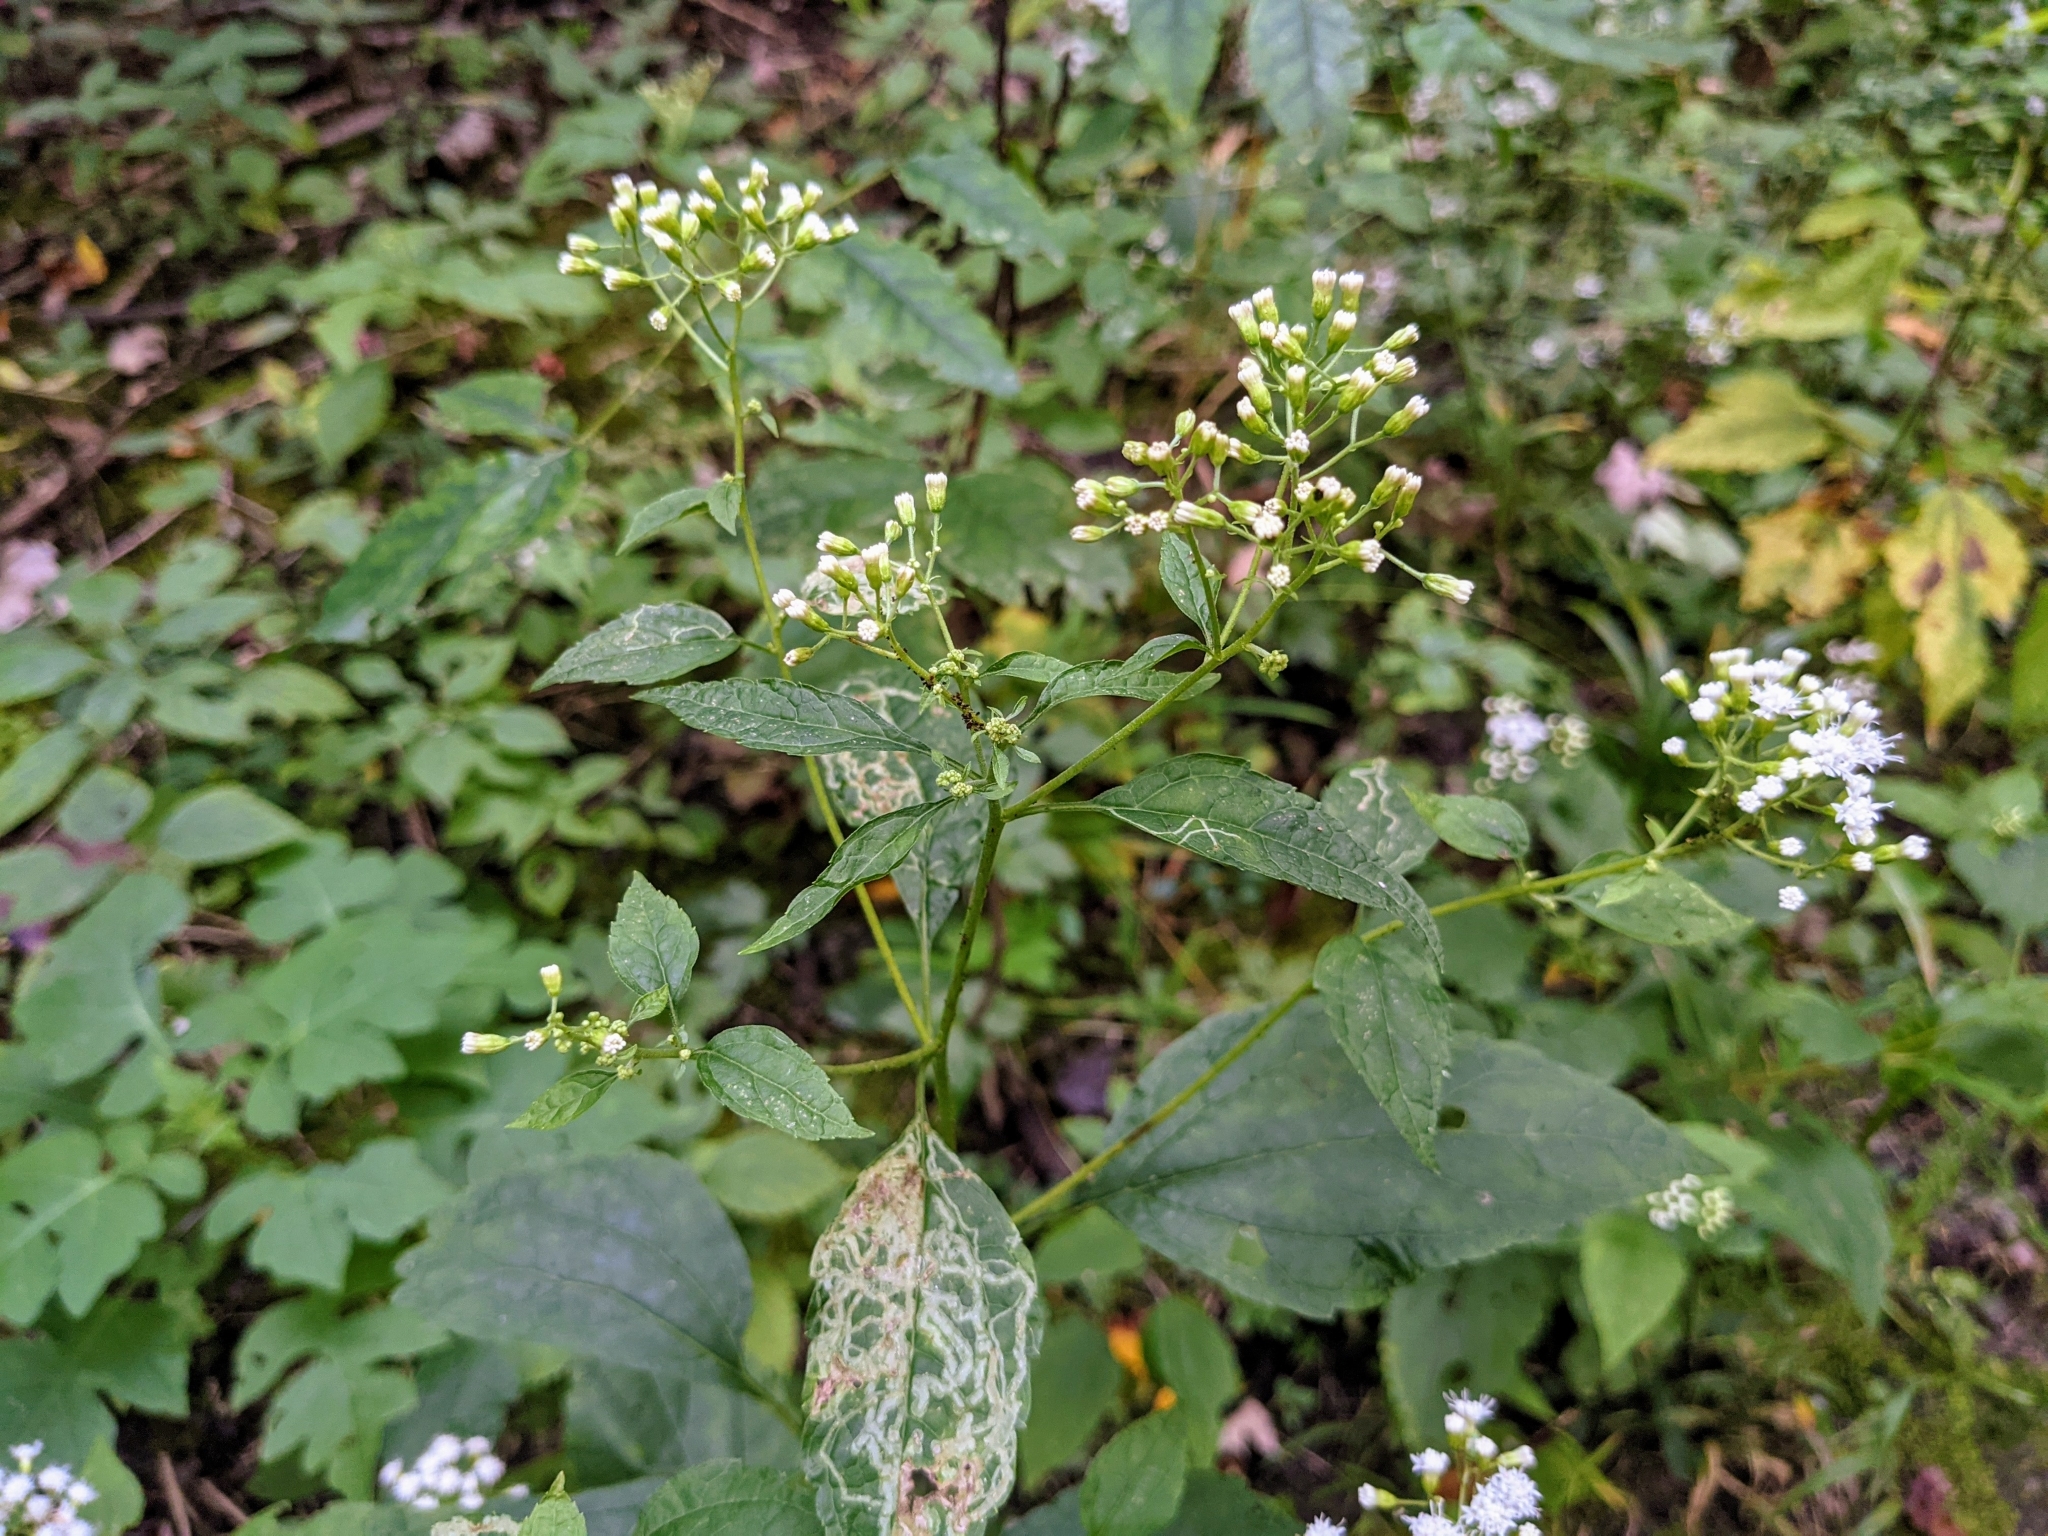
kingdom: Plantae
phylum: Tracheophyta
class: Magnoliopsida
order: Asterales
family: Asteraceae
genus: Ageratina
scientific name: Ageratina altissima
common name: White snakeroot
